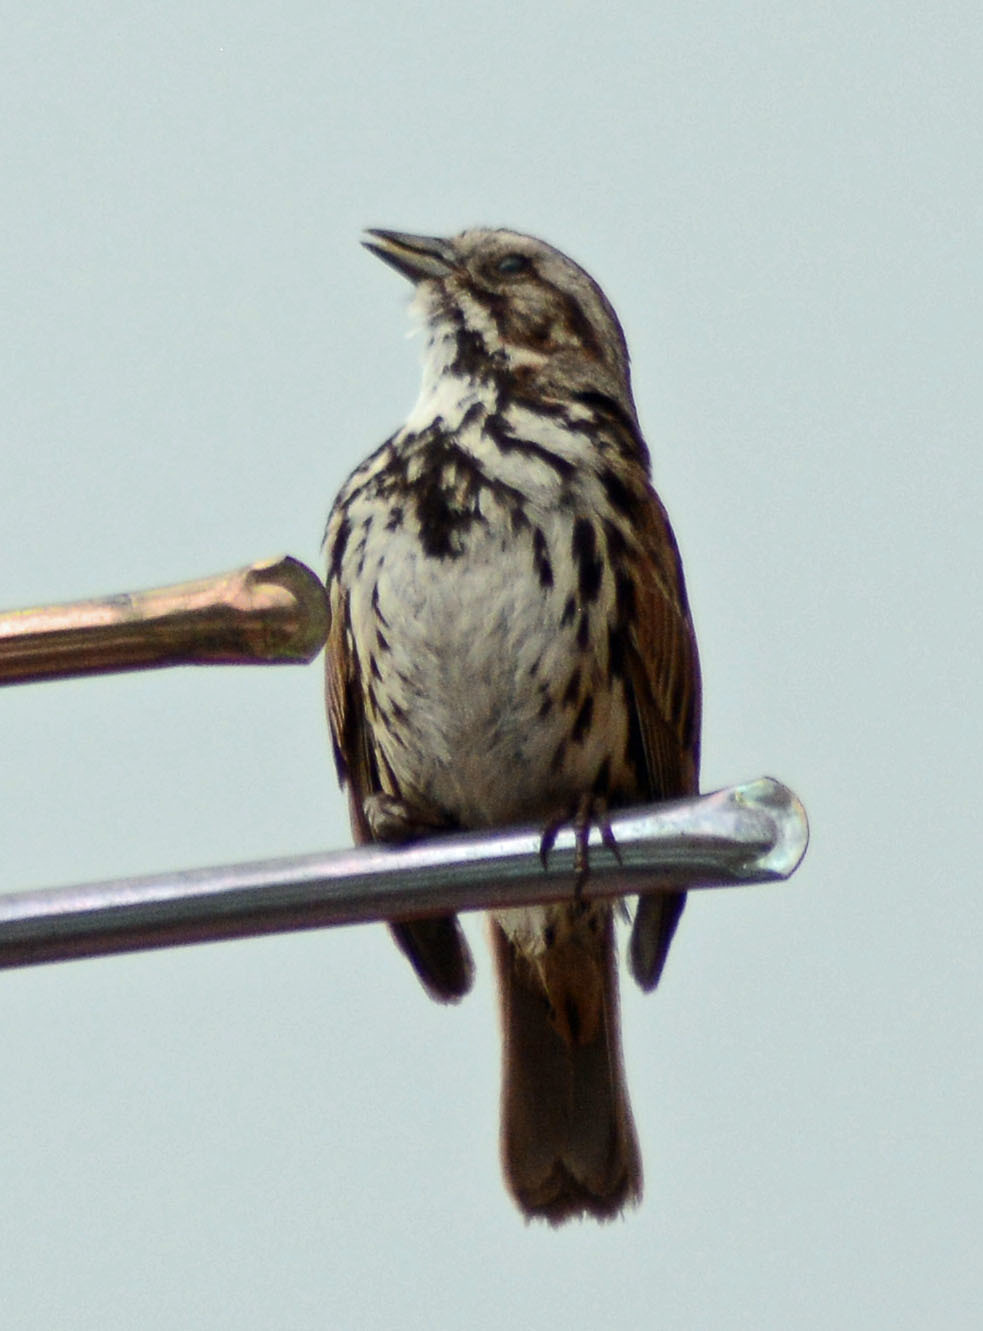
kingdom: Animalia
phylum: Chordata
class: Aves
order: Passeriformes
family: Passerellidae
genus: Melospiza
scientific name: Melospiza melodia
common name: Song sparrow
